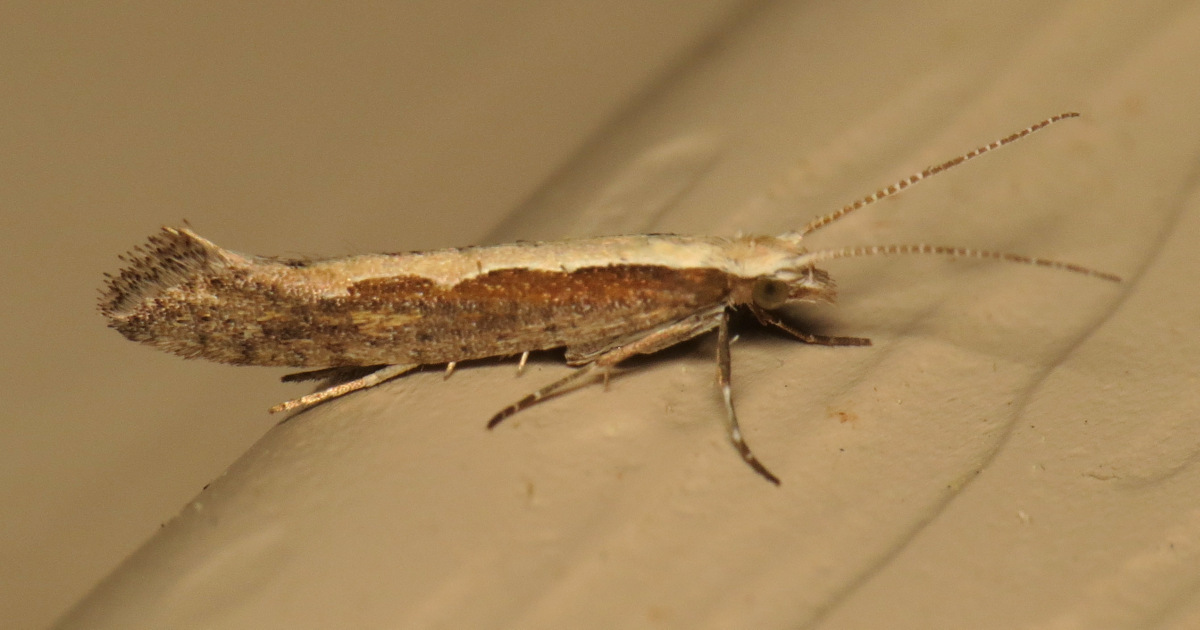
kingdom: Animalia
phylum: Arthropoda
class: Insecta
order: Lepidoptera
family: Plutellidae
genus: Plutella
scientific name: Plutella xylostella
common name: Diamond-back moth
